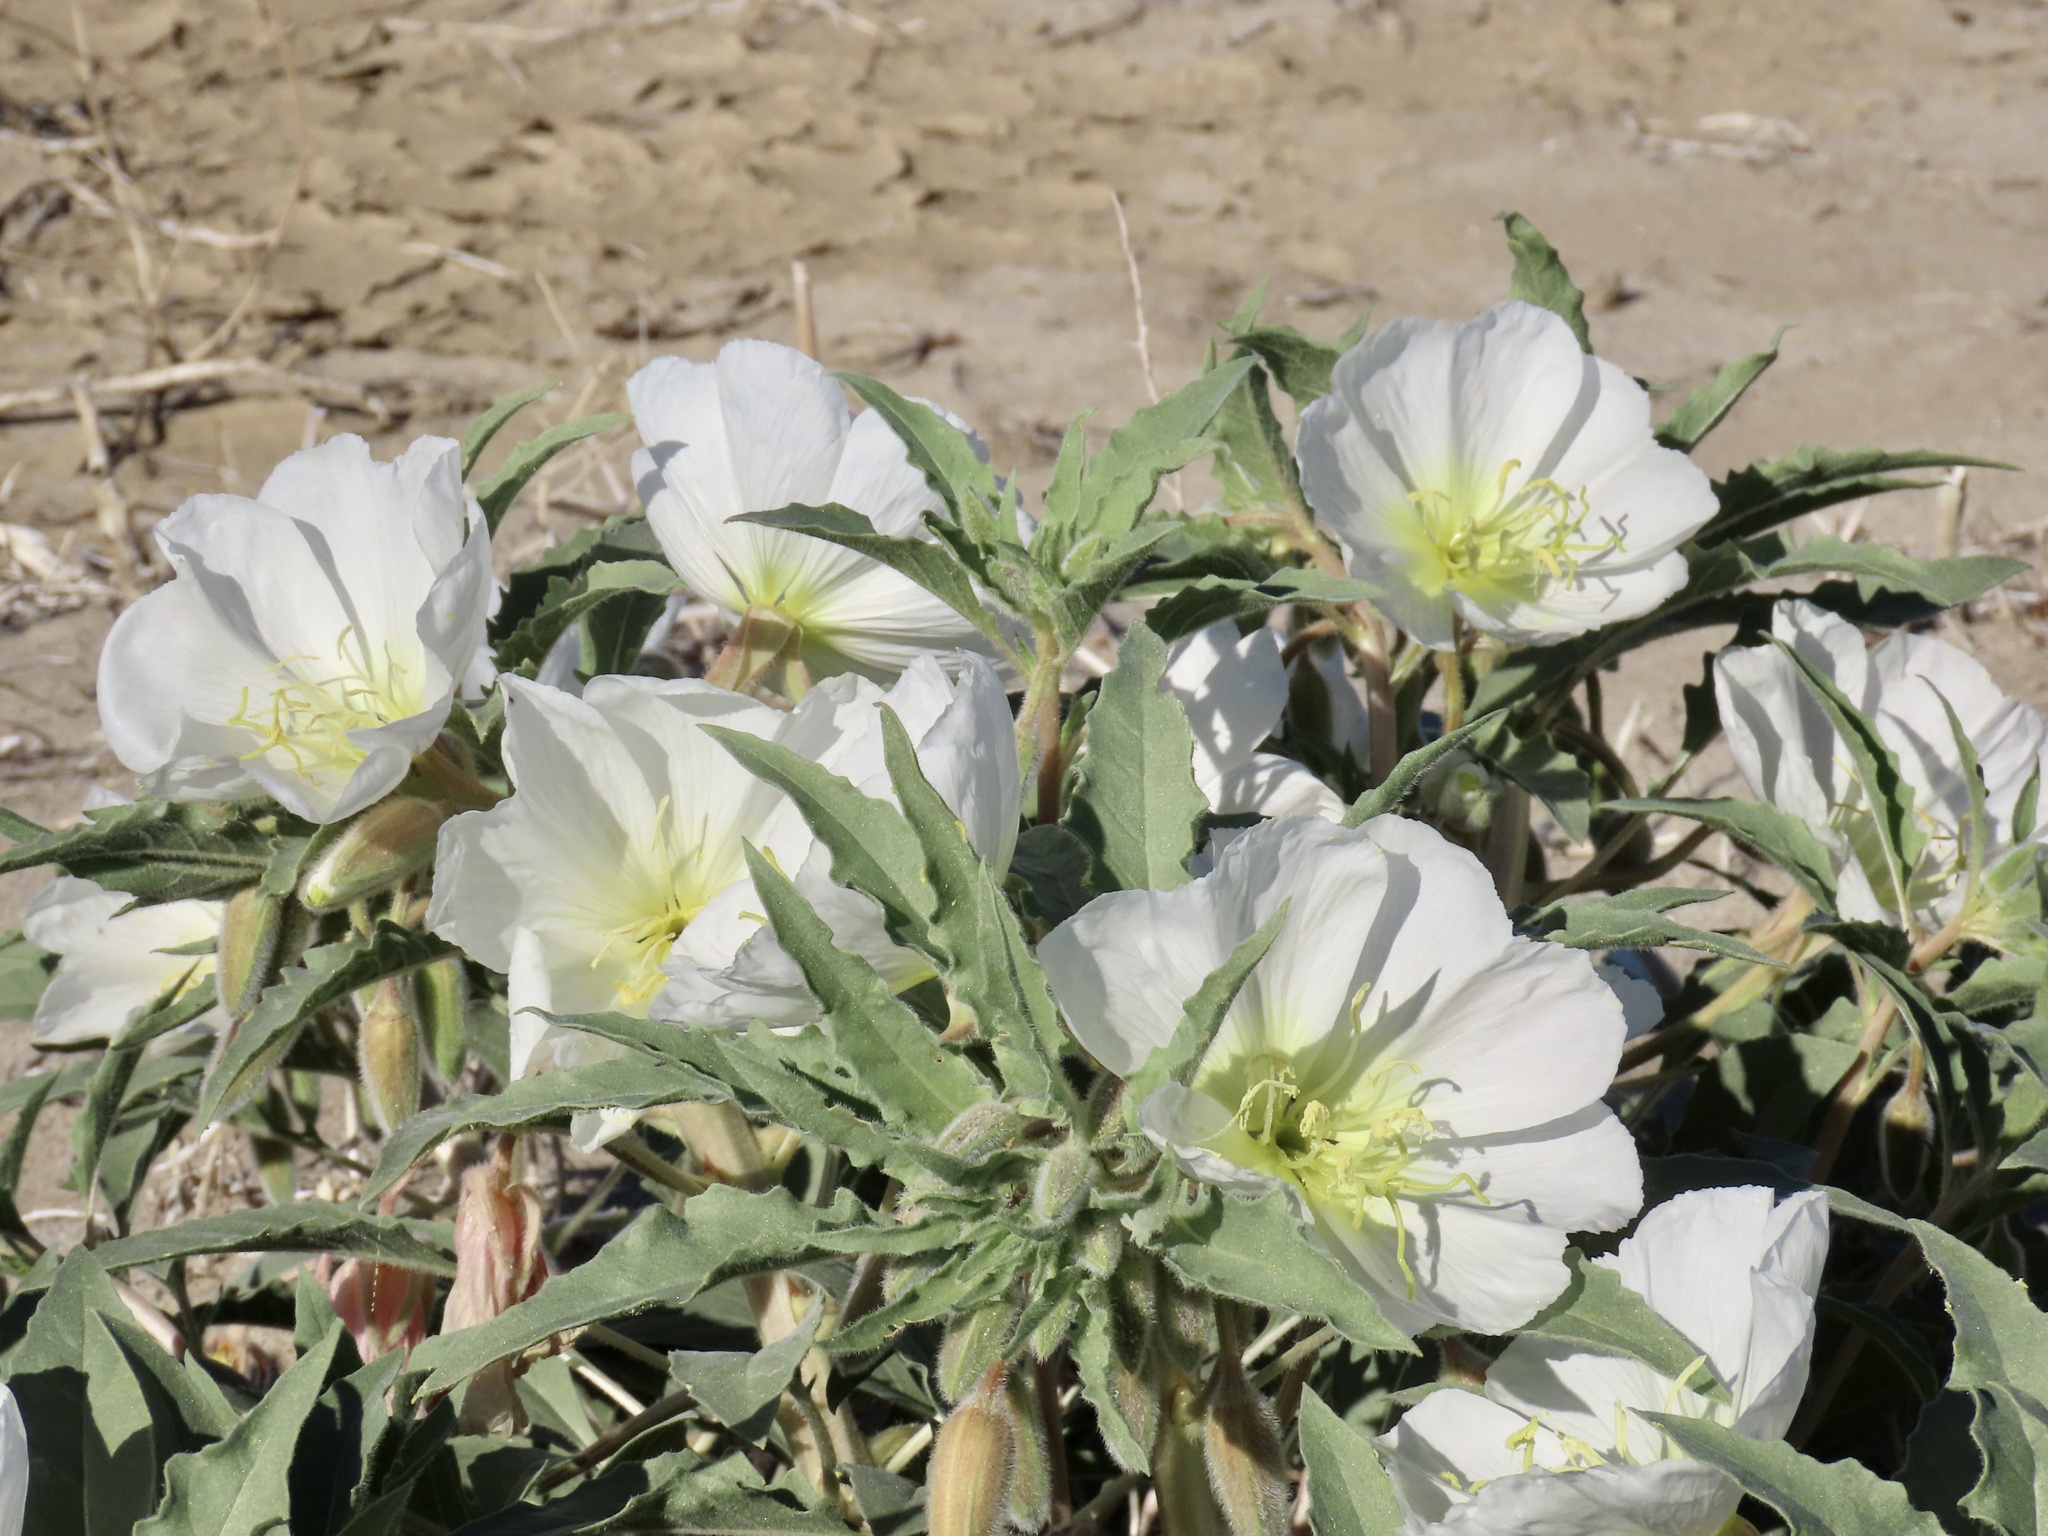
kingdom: Plantae
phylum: Tracheophyta
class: Magnoliopsida
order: Myrtales
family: Onagraceae
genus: Oenothera
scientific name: Oenothera deltoides
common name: Basket evening-primrose
